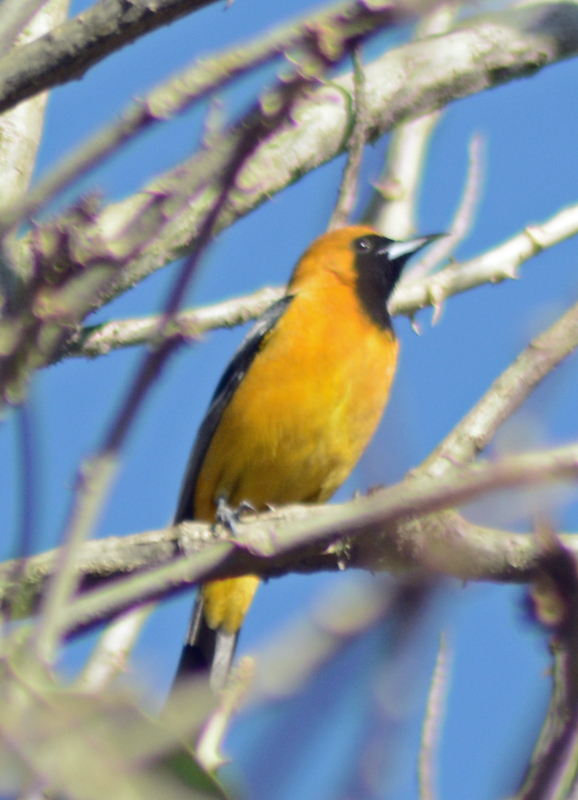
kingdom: Animalia
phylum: Chordata
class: Aves
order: Passeriformes
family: Icteridae
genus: Icterus
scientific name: Icterus cucullatus
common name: Hooded oriole
